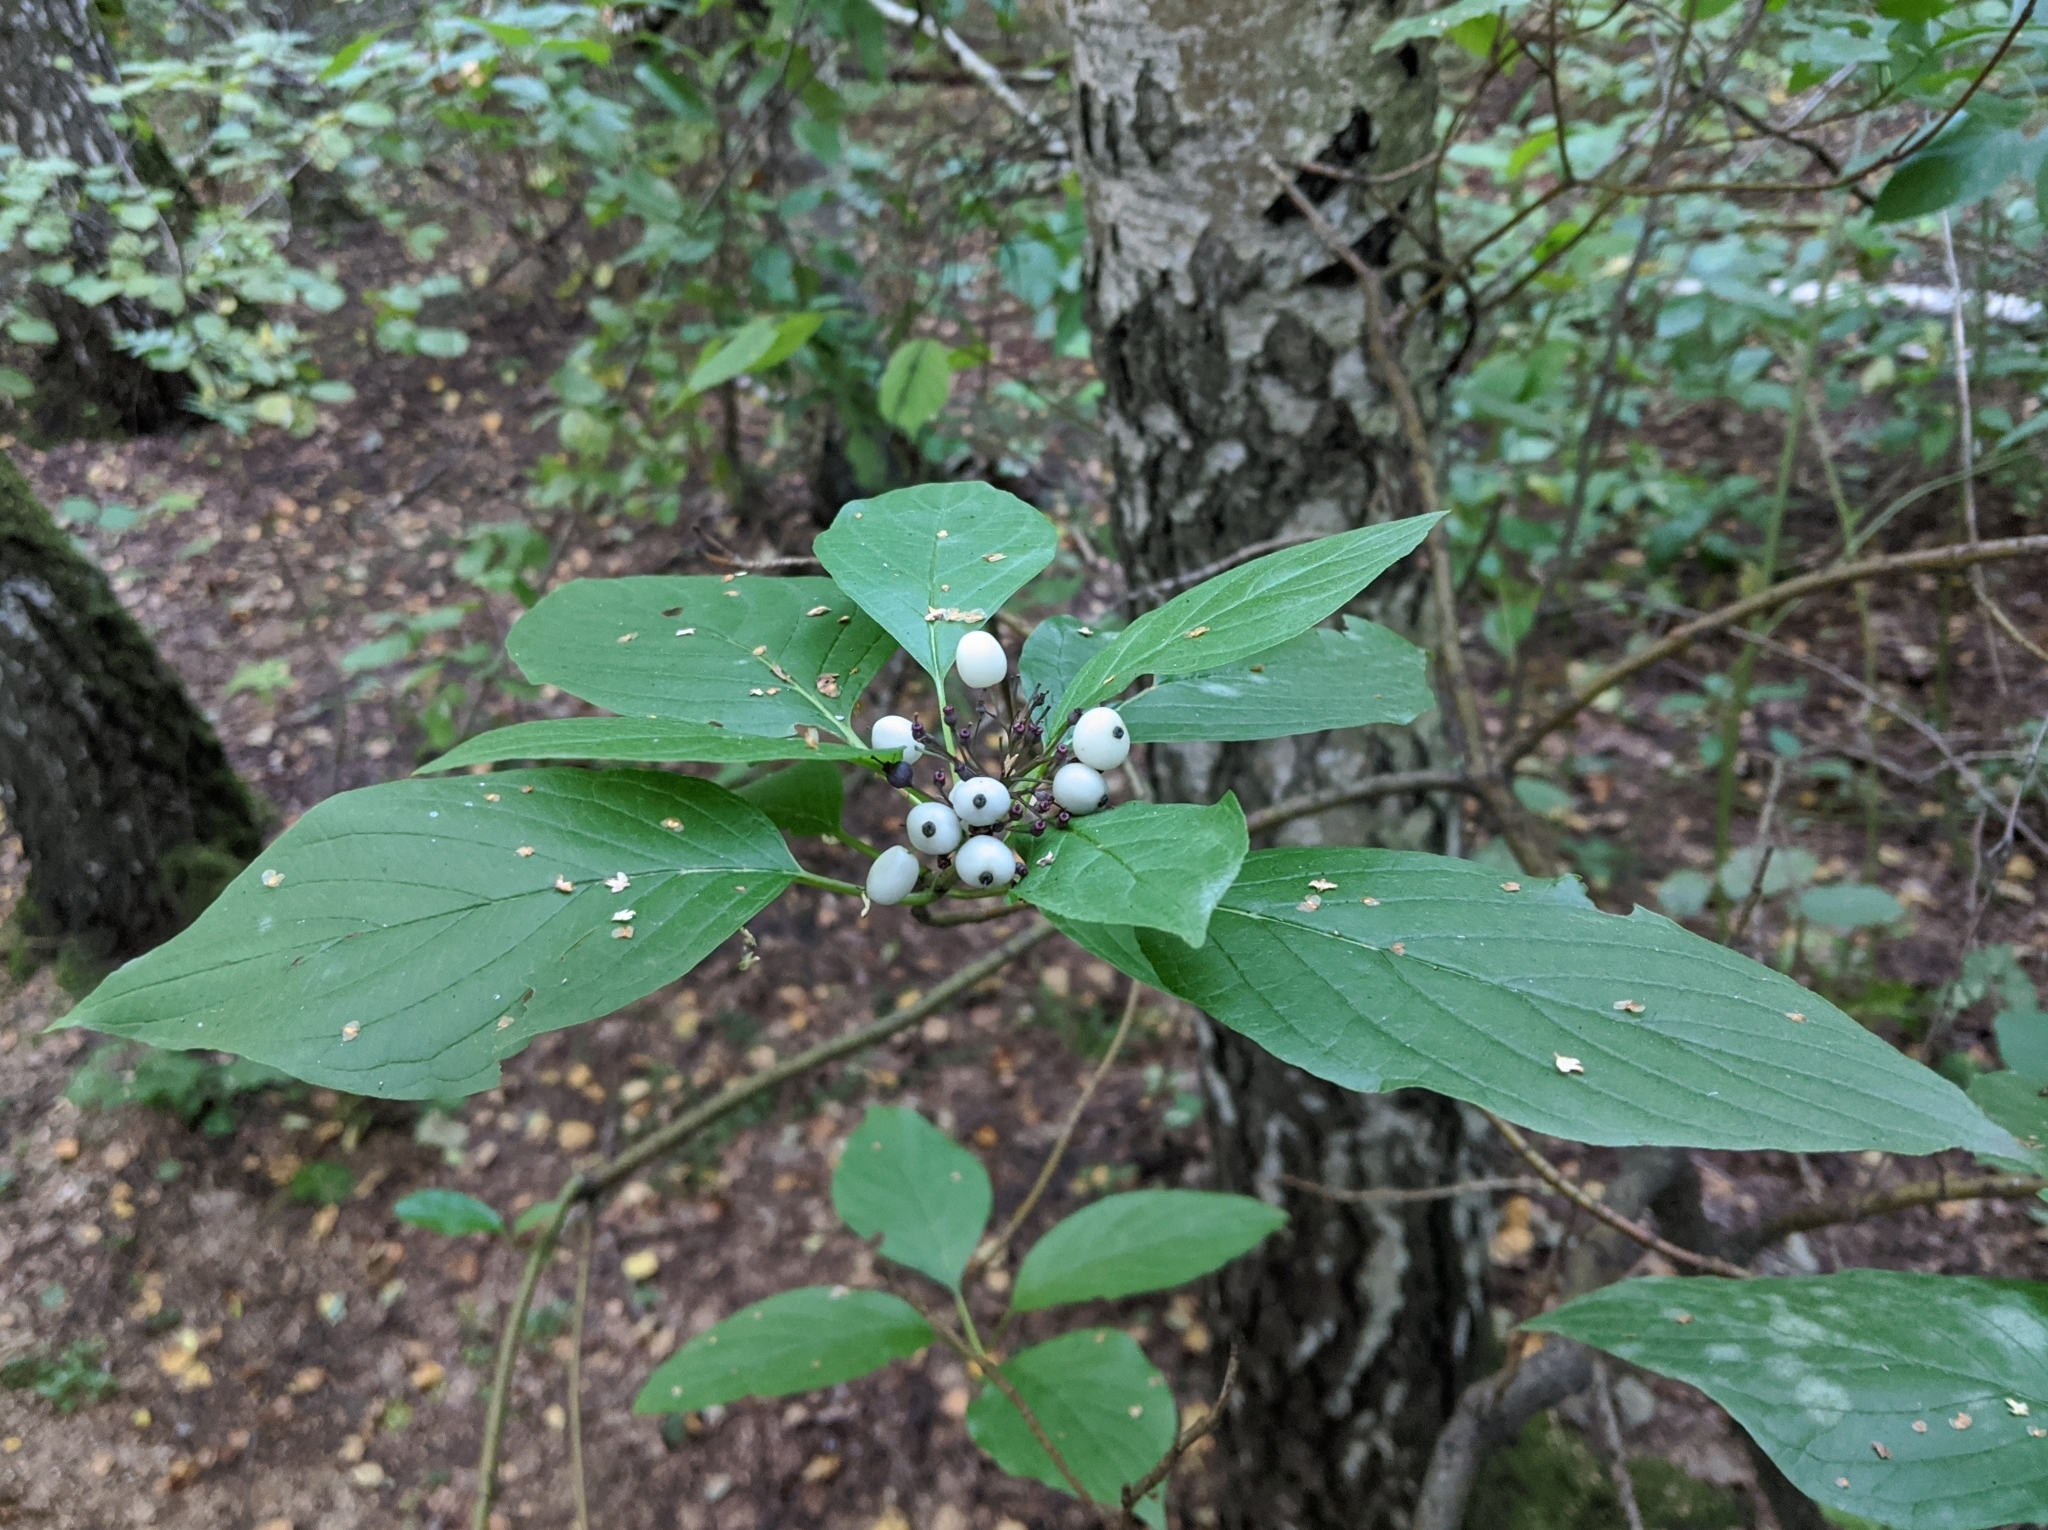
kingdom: Plantae
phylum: Tracheophyta
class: Magnoliopsida
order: Cornales
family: Cornaceae
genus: Cornus
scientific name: Cornus alba
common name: White dogwood
